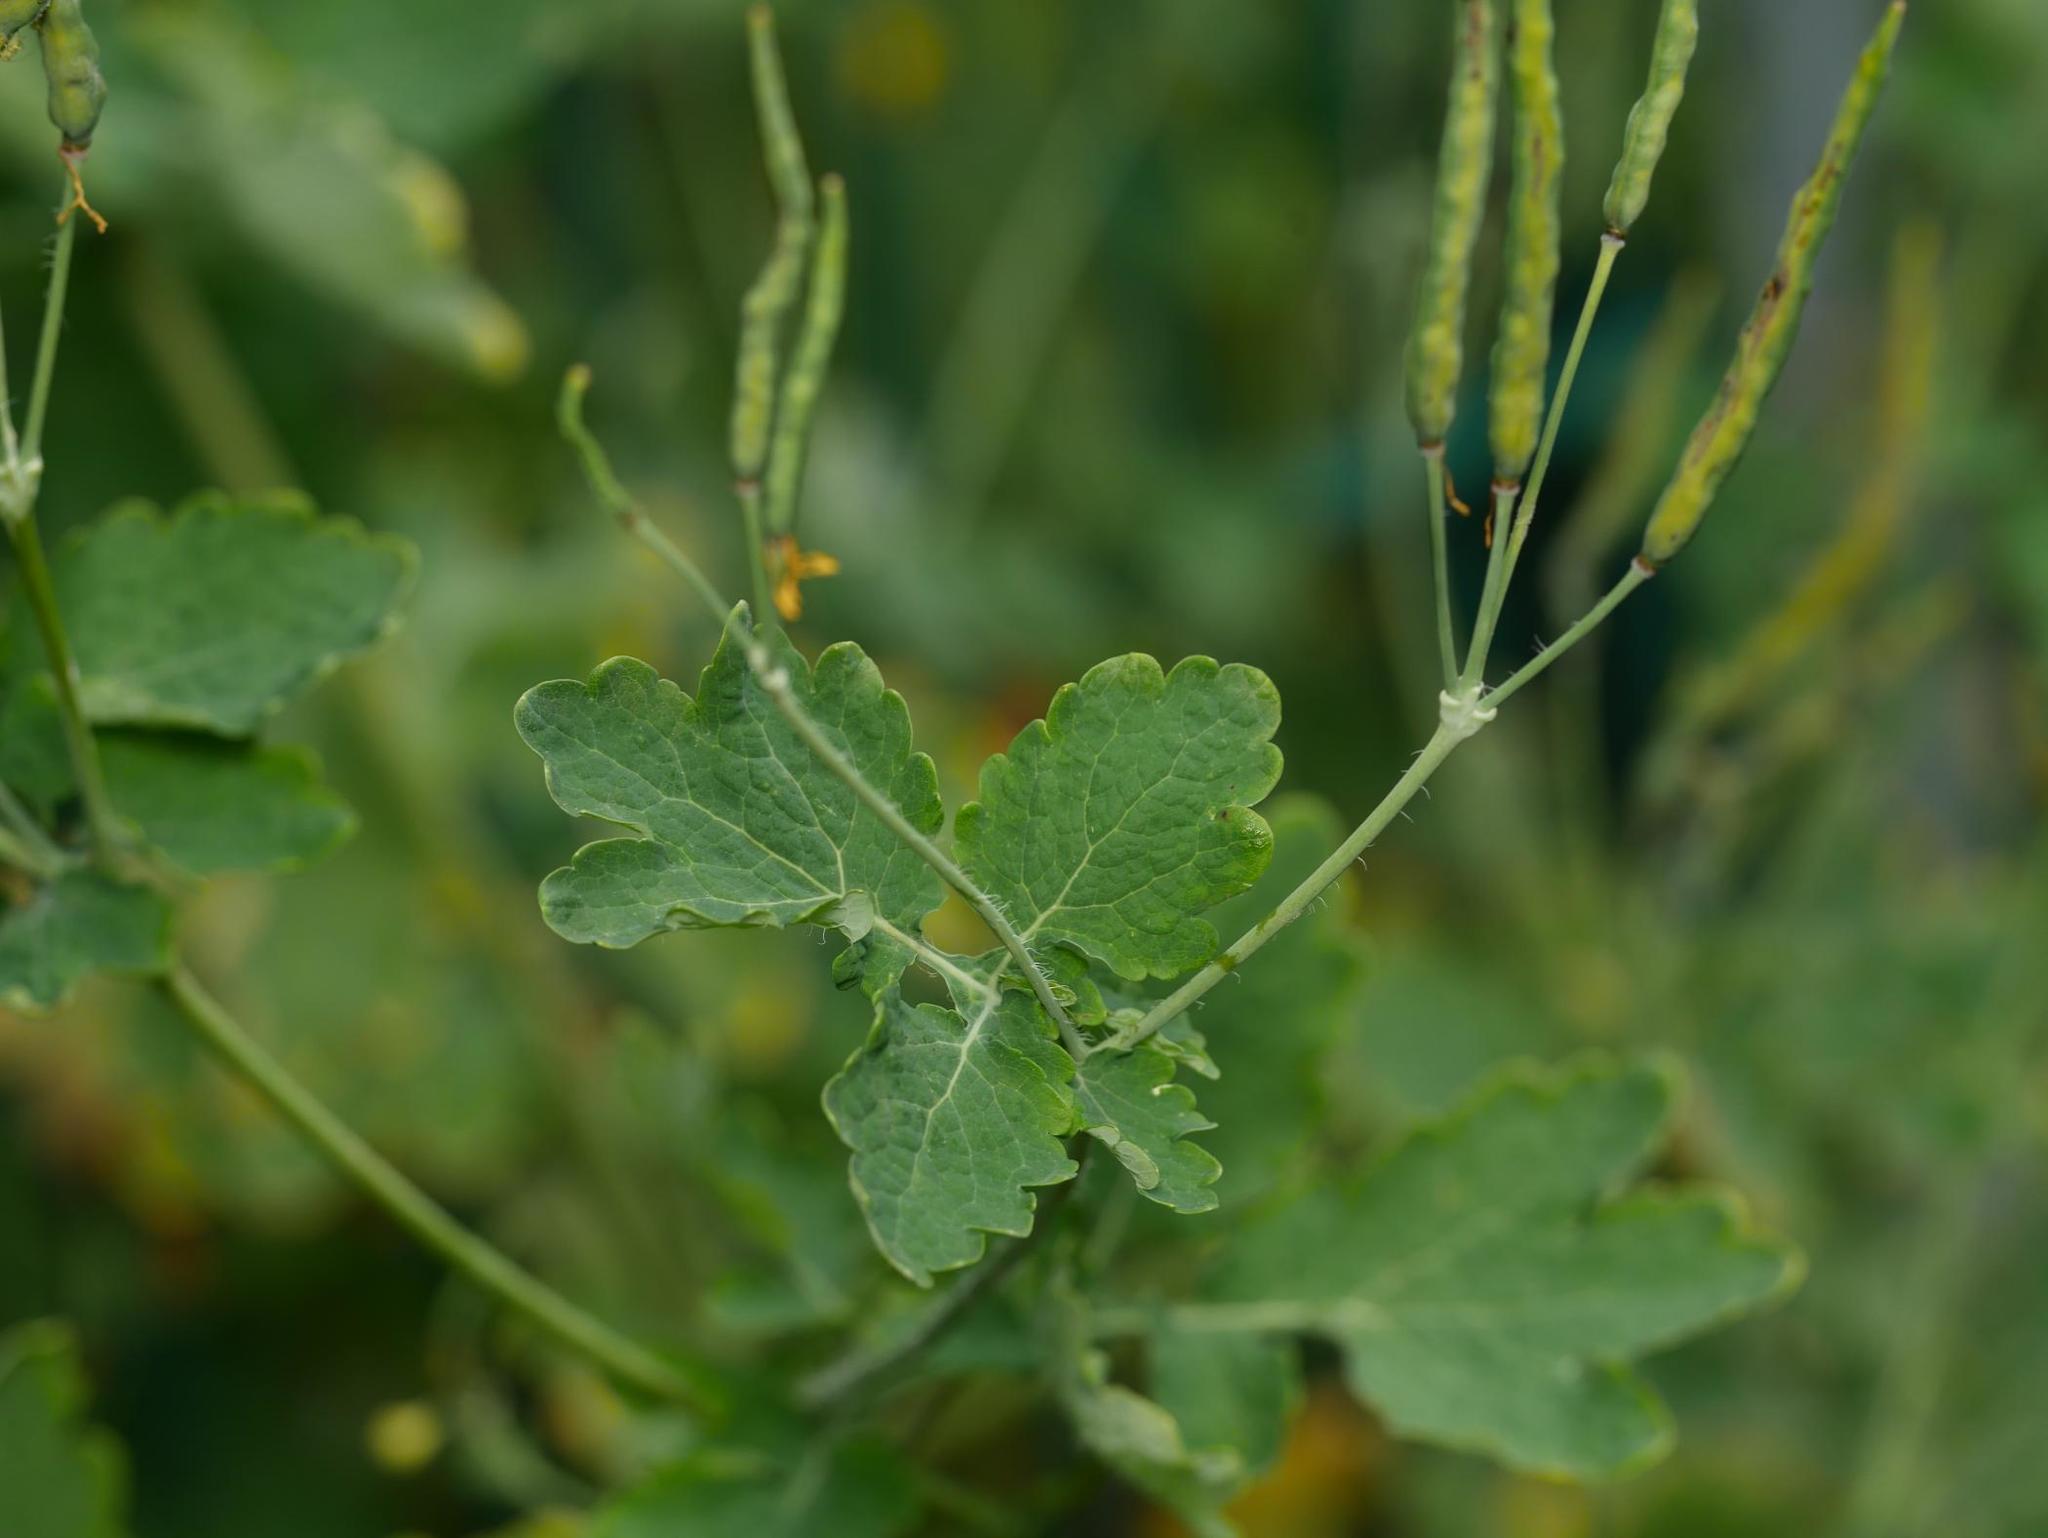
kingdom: Plantae
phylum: Tracheophyta
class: Magnoliopsida
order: Ranunculales
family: Papaveraceae
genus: Chelidonium
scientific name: Chelidonium majus
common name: Greater celandine
